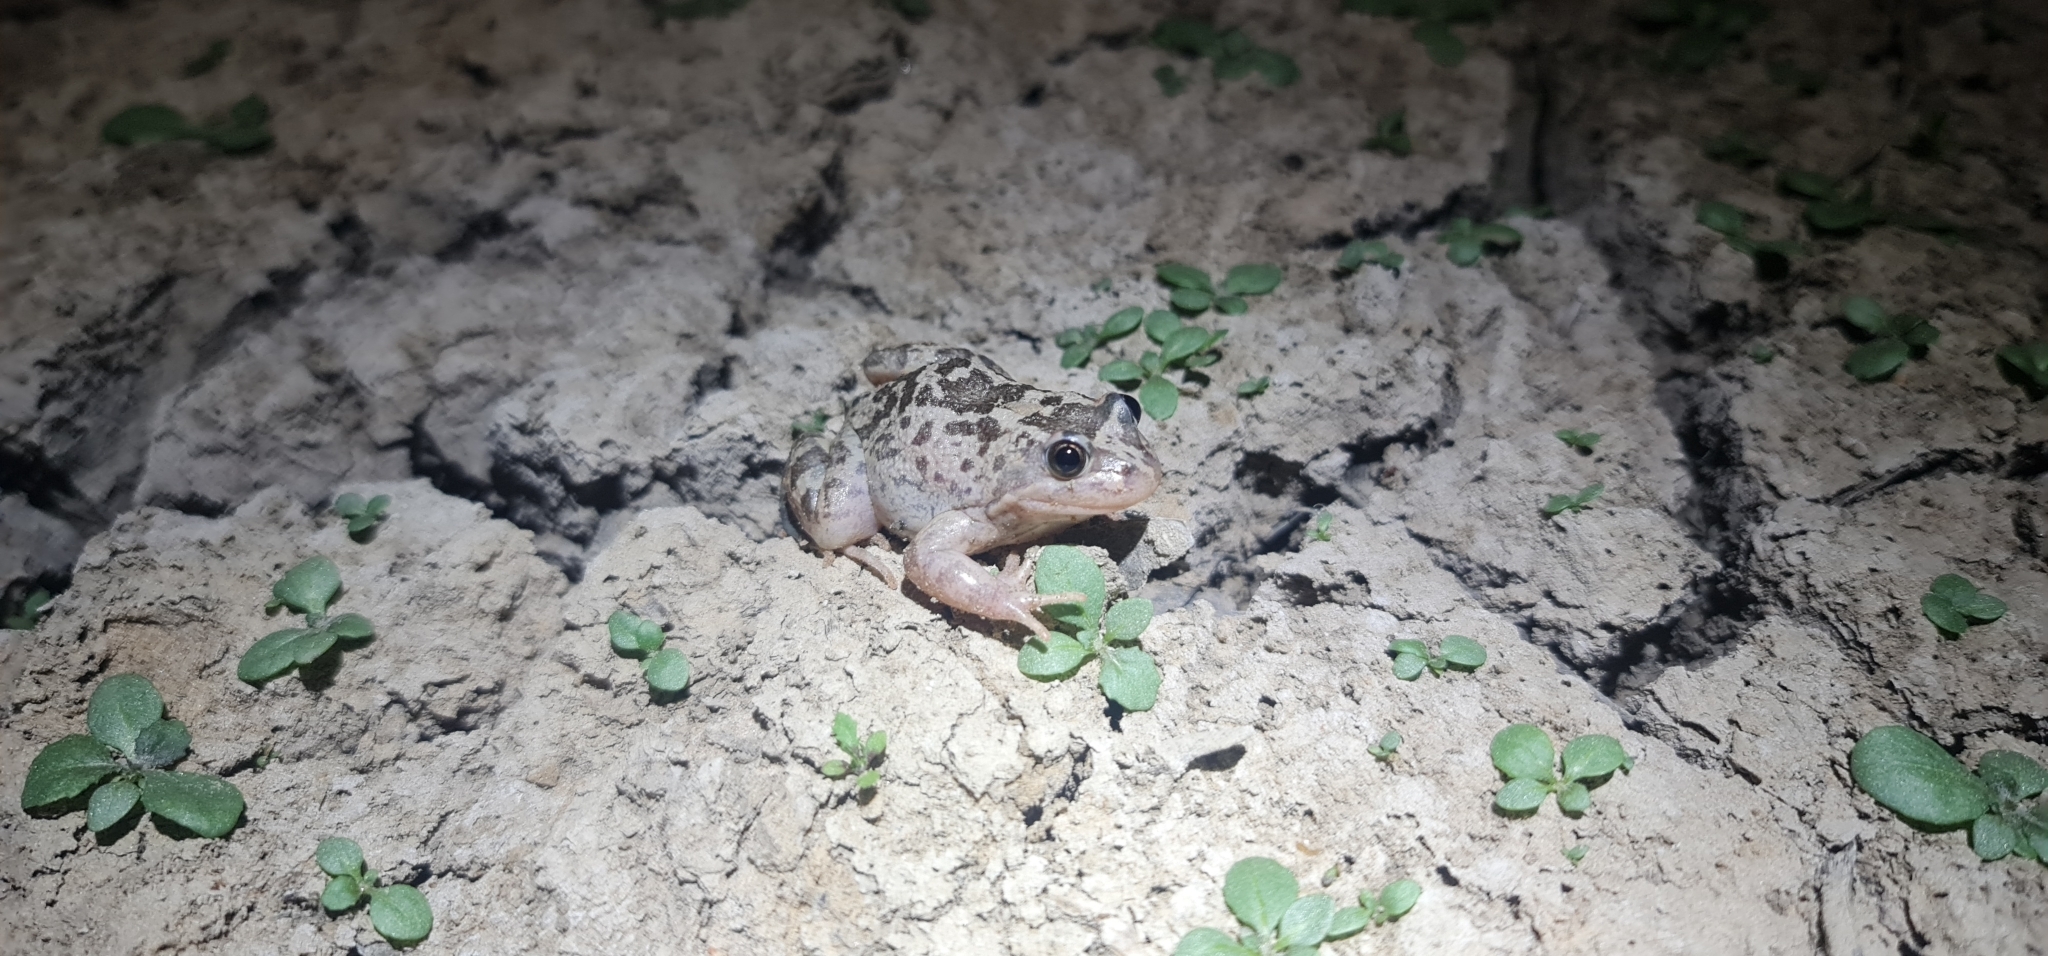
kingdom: Animalia
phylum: Chordata
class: Amphibia
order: Anura
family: Limnodynastidae
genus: Limnodynastes
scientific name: Limnodynastes fletcheri
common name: Barking frog
